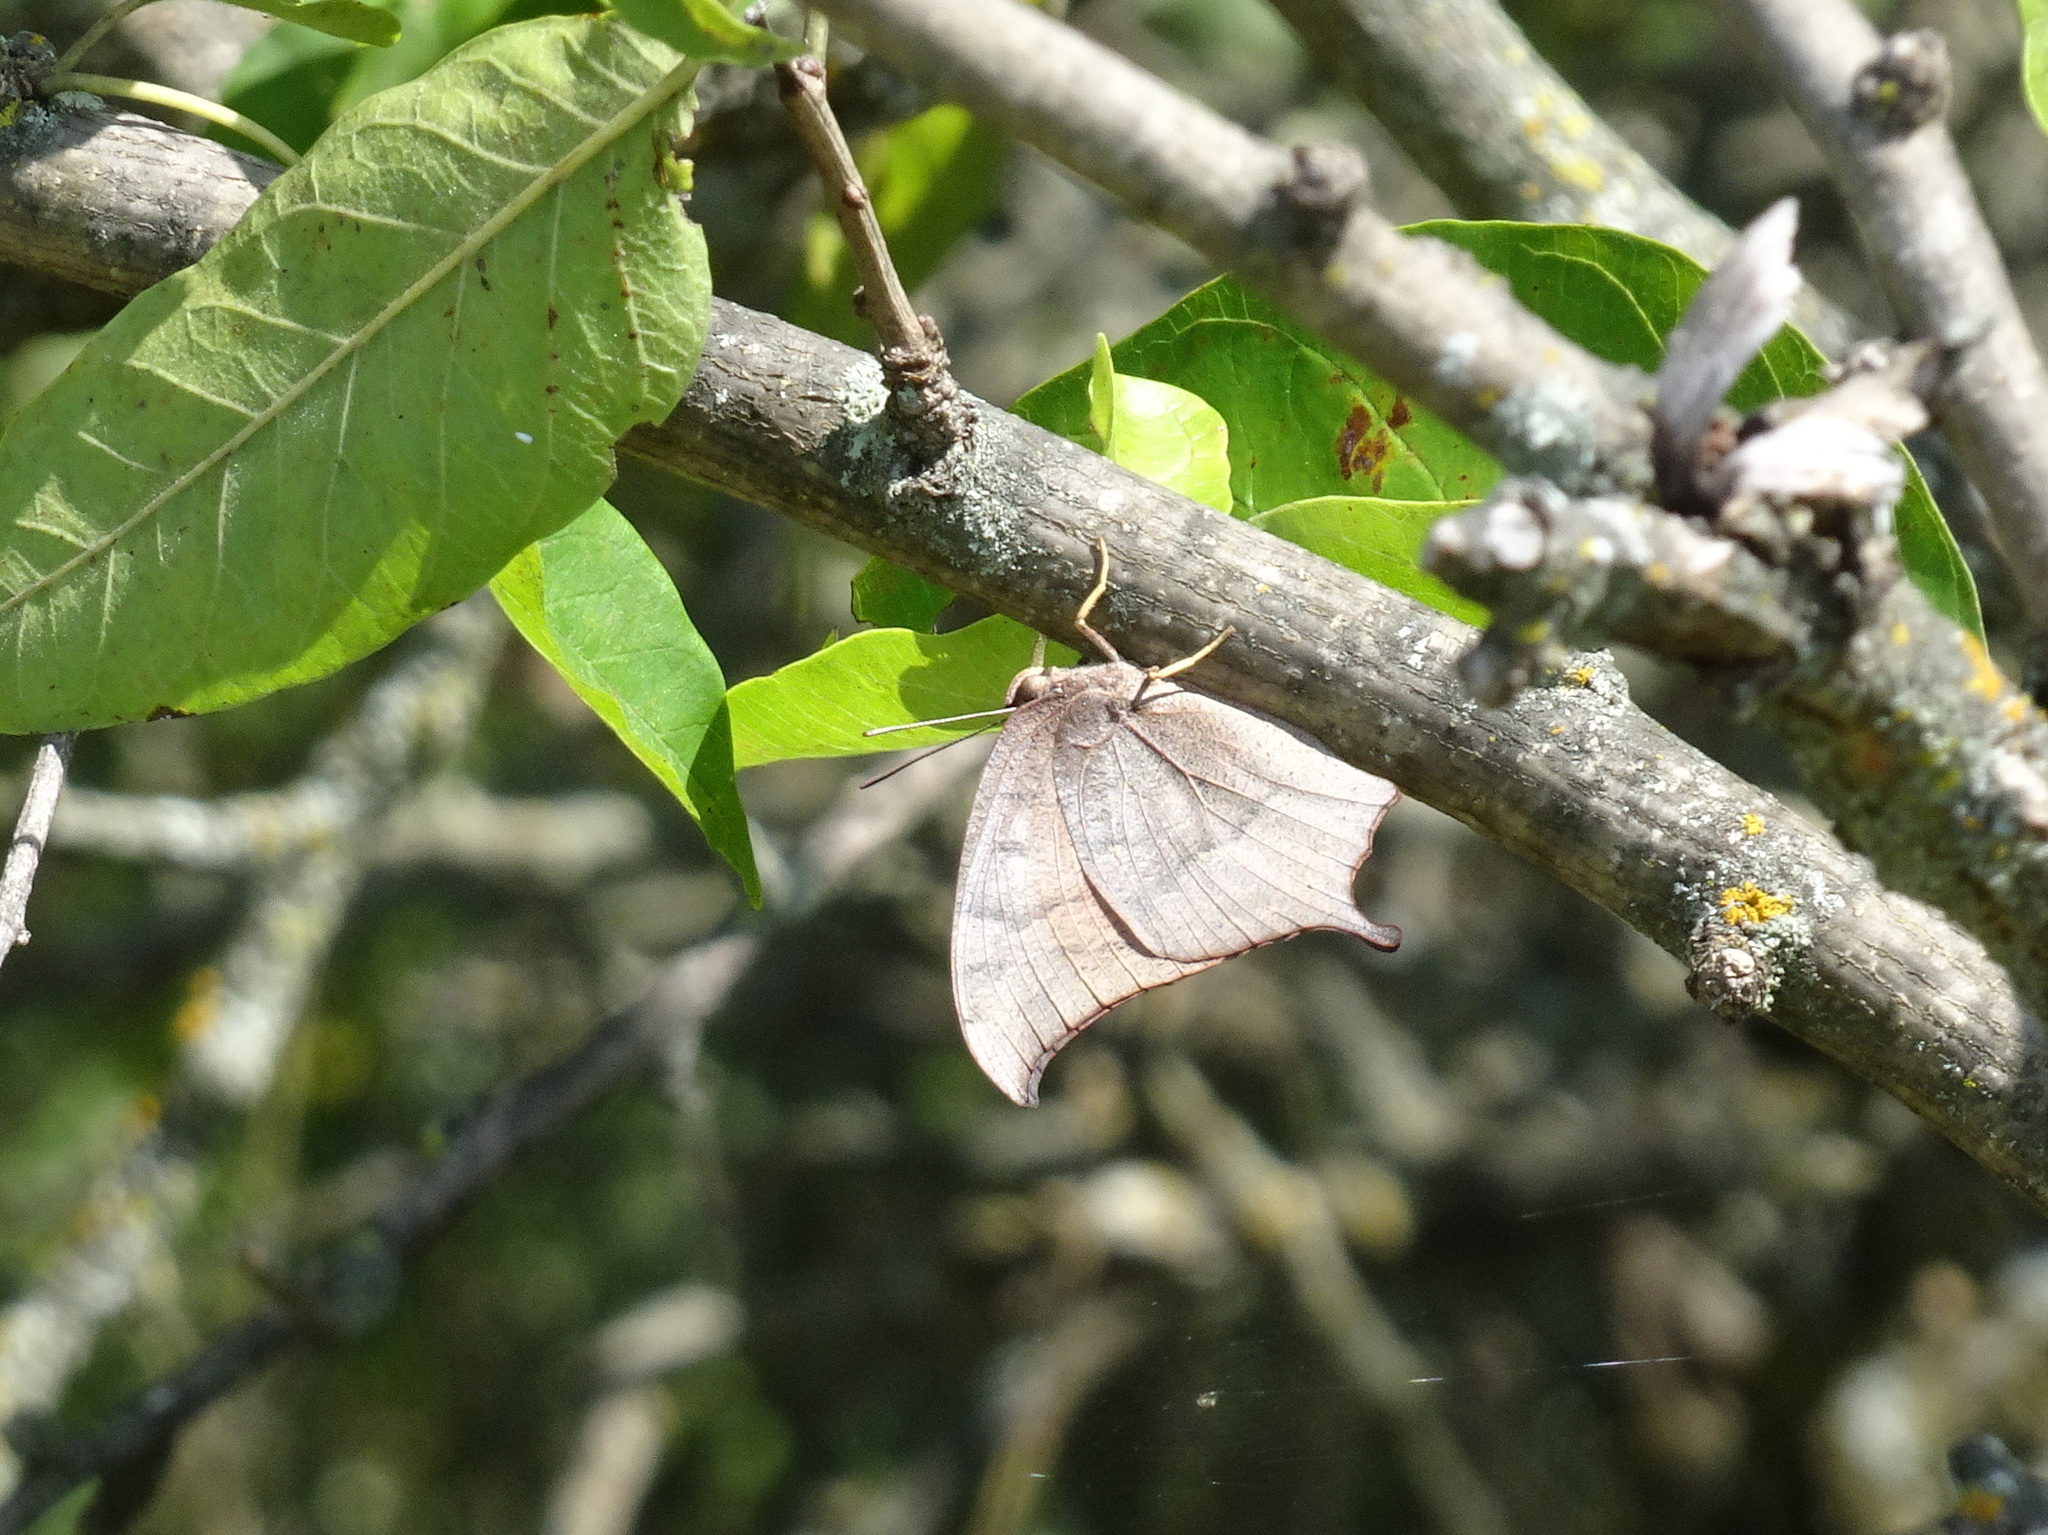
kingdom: Animalia
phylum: Arthropoda
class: Insecta
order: Lepidoptera
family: Nymphalidae
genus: Anaea
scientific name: Anaea andria
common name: Goatweed leafwing
